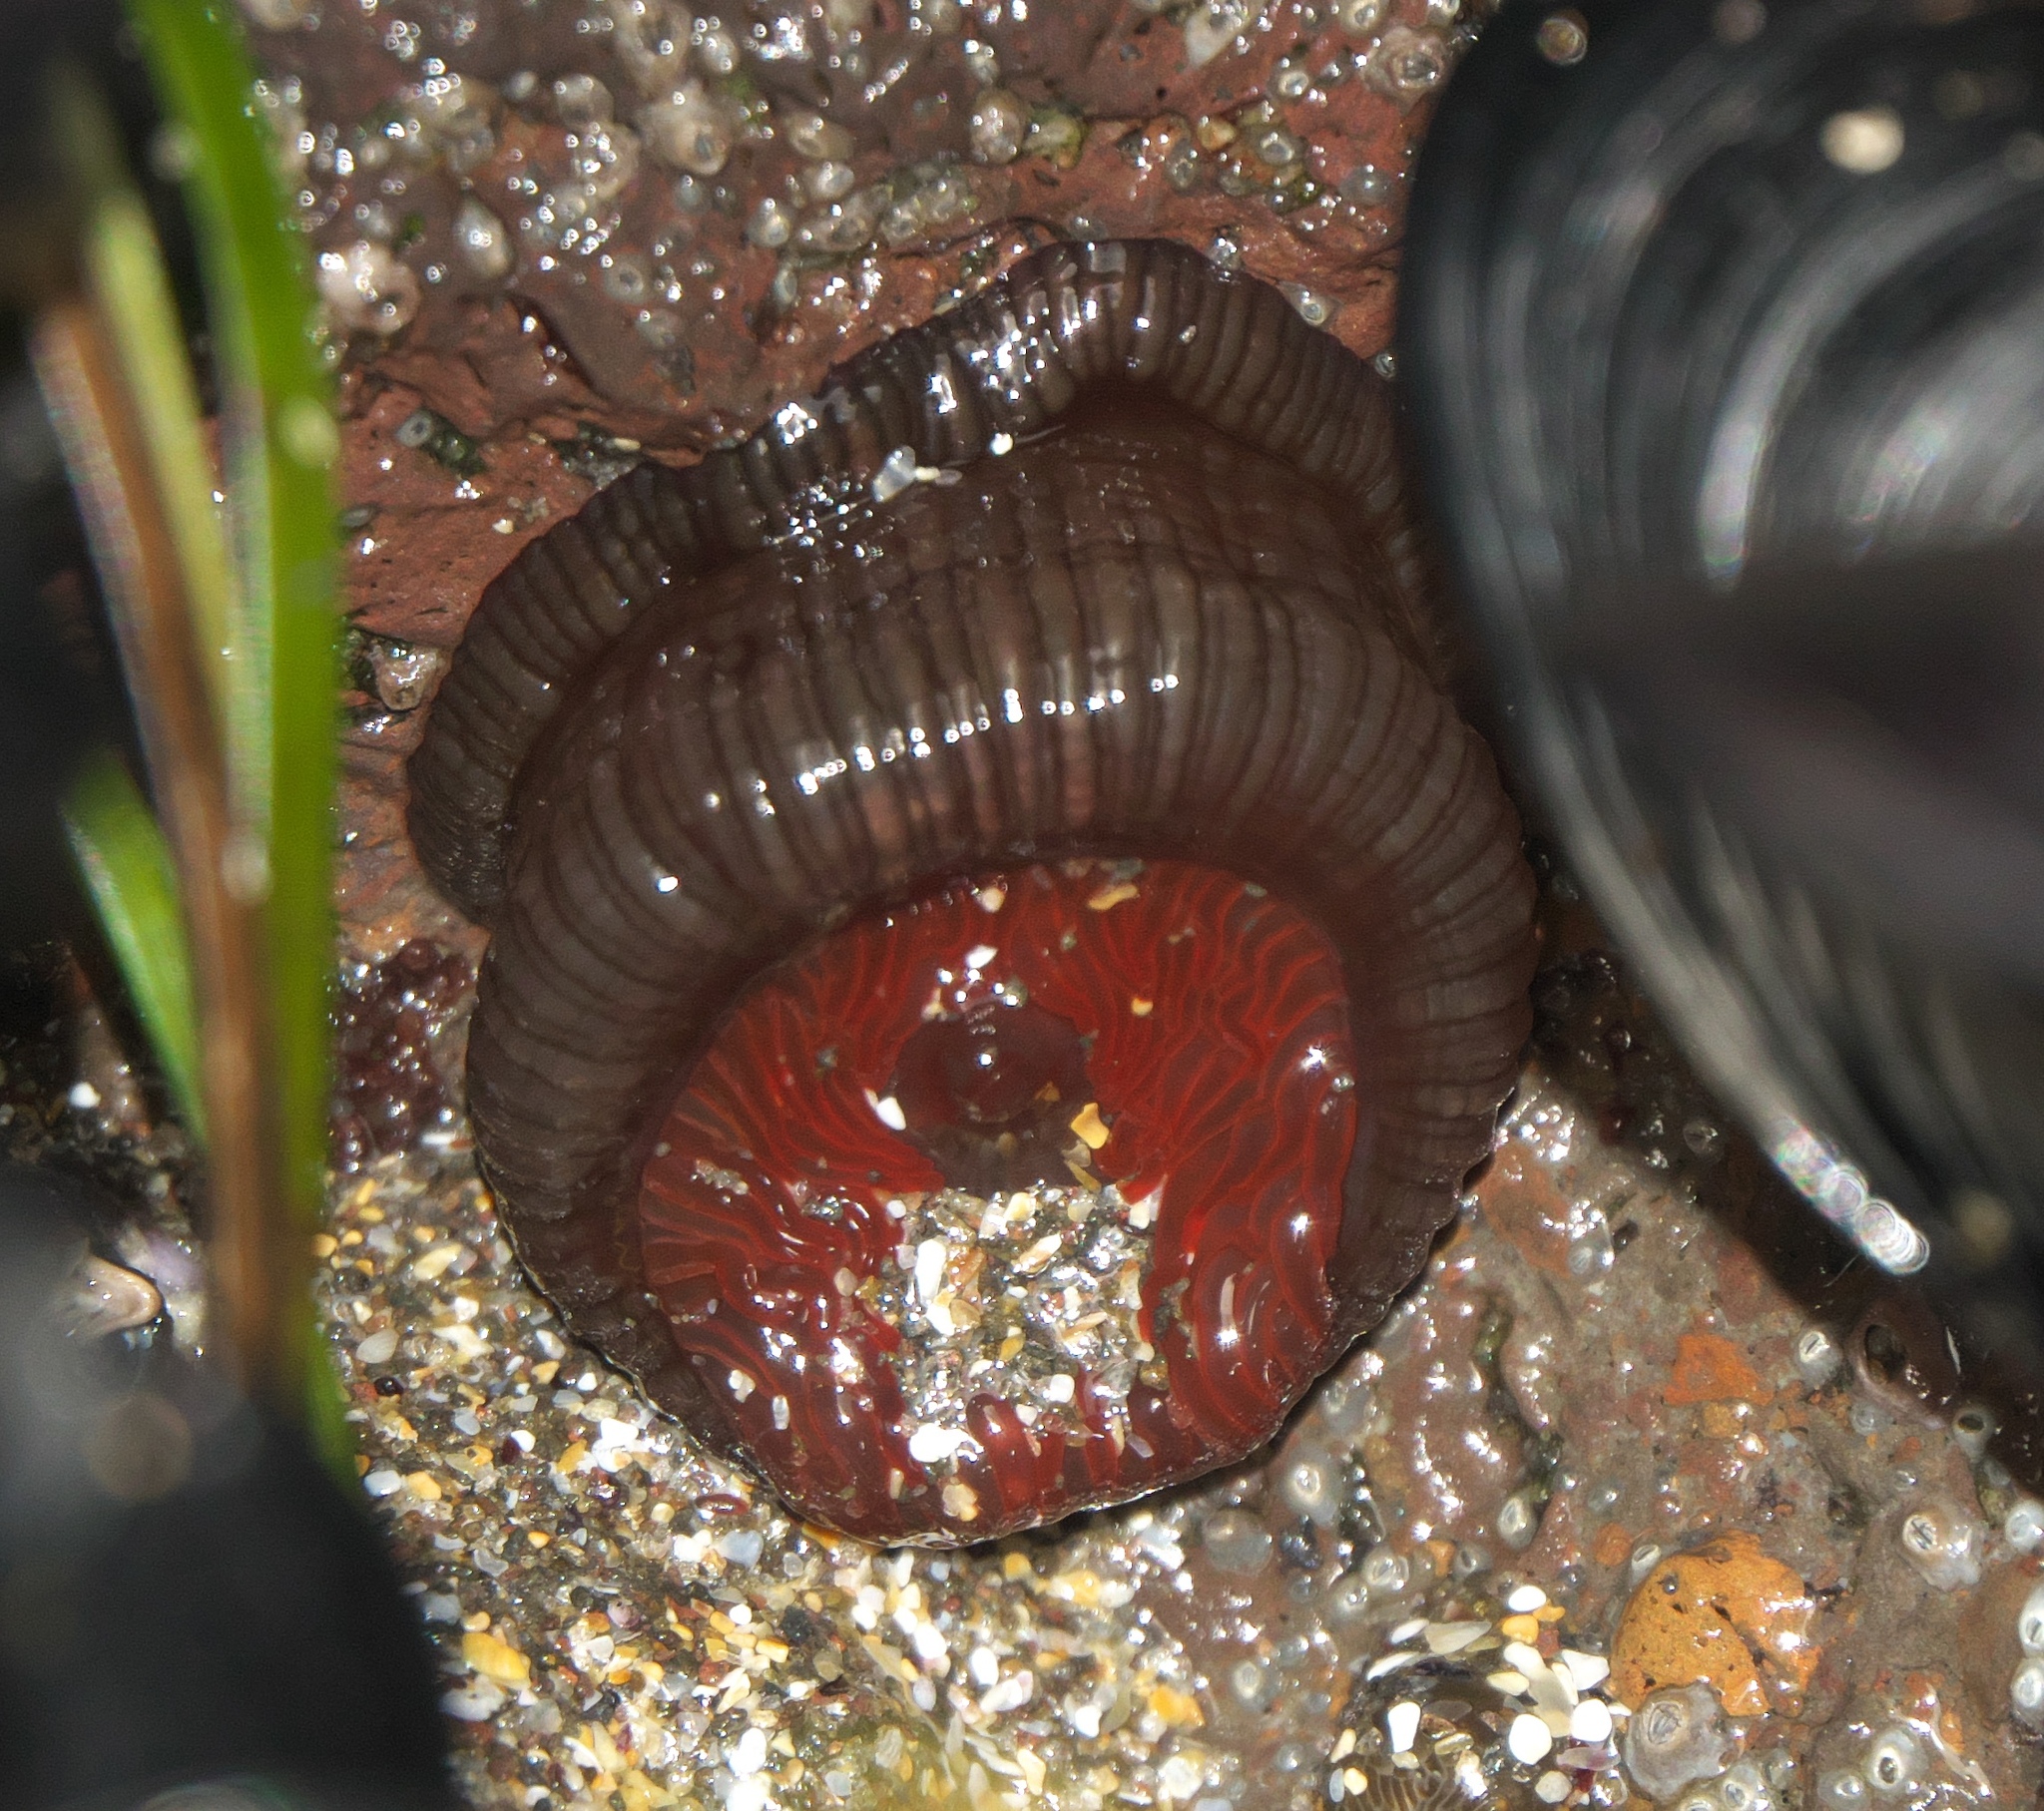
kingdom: Animalia
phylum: Cnidaria
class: Anthozoa
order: Actiniaria
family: Actiniidae
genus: Actinia
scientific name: Actinia tenebrosa
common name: Waratah anemone
